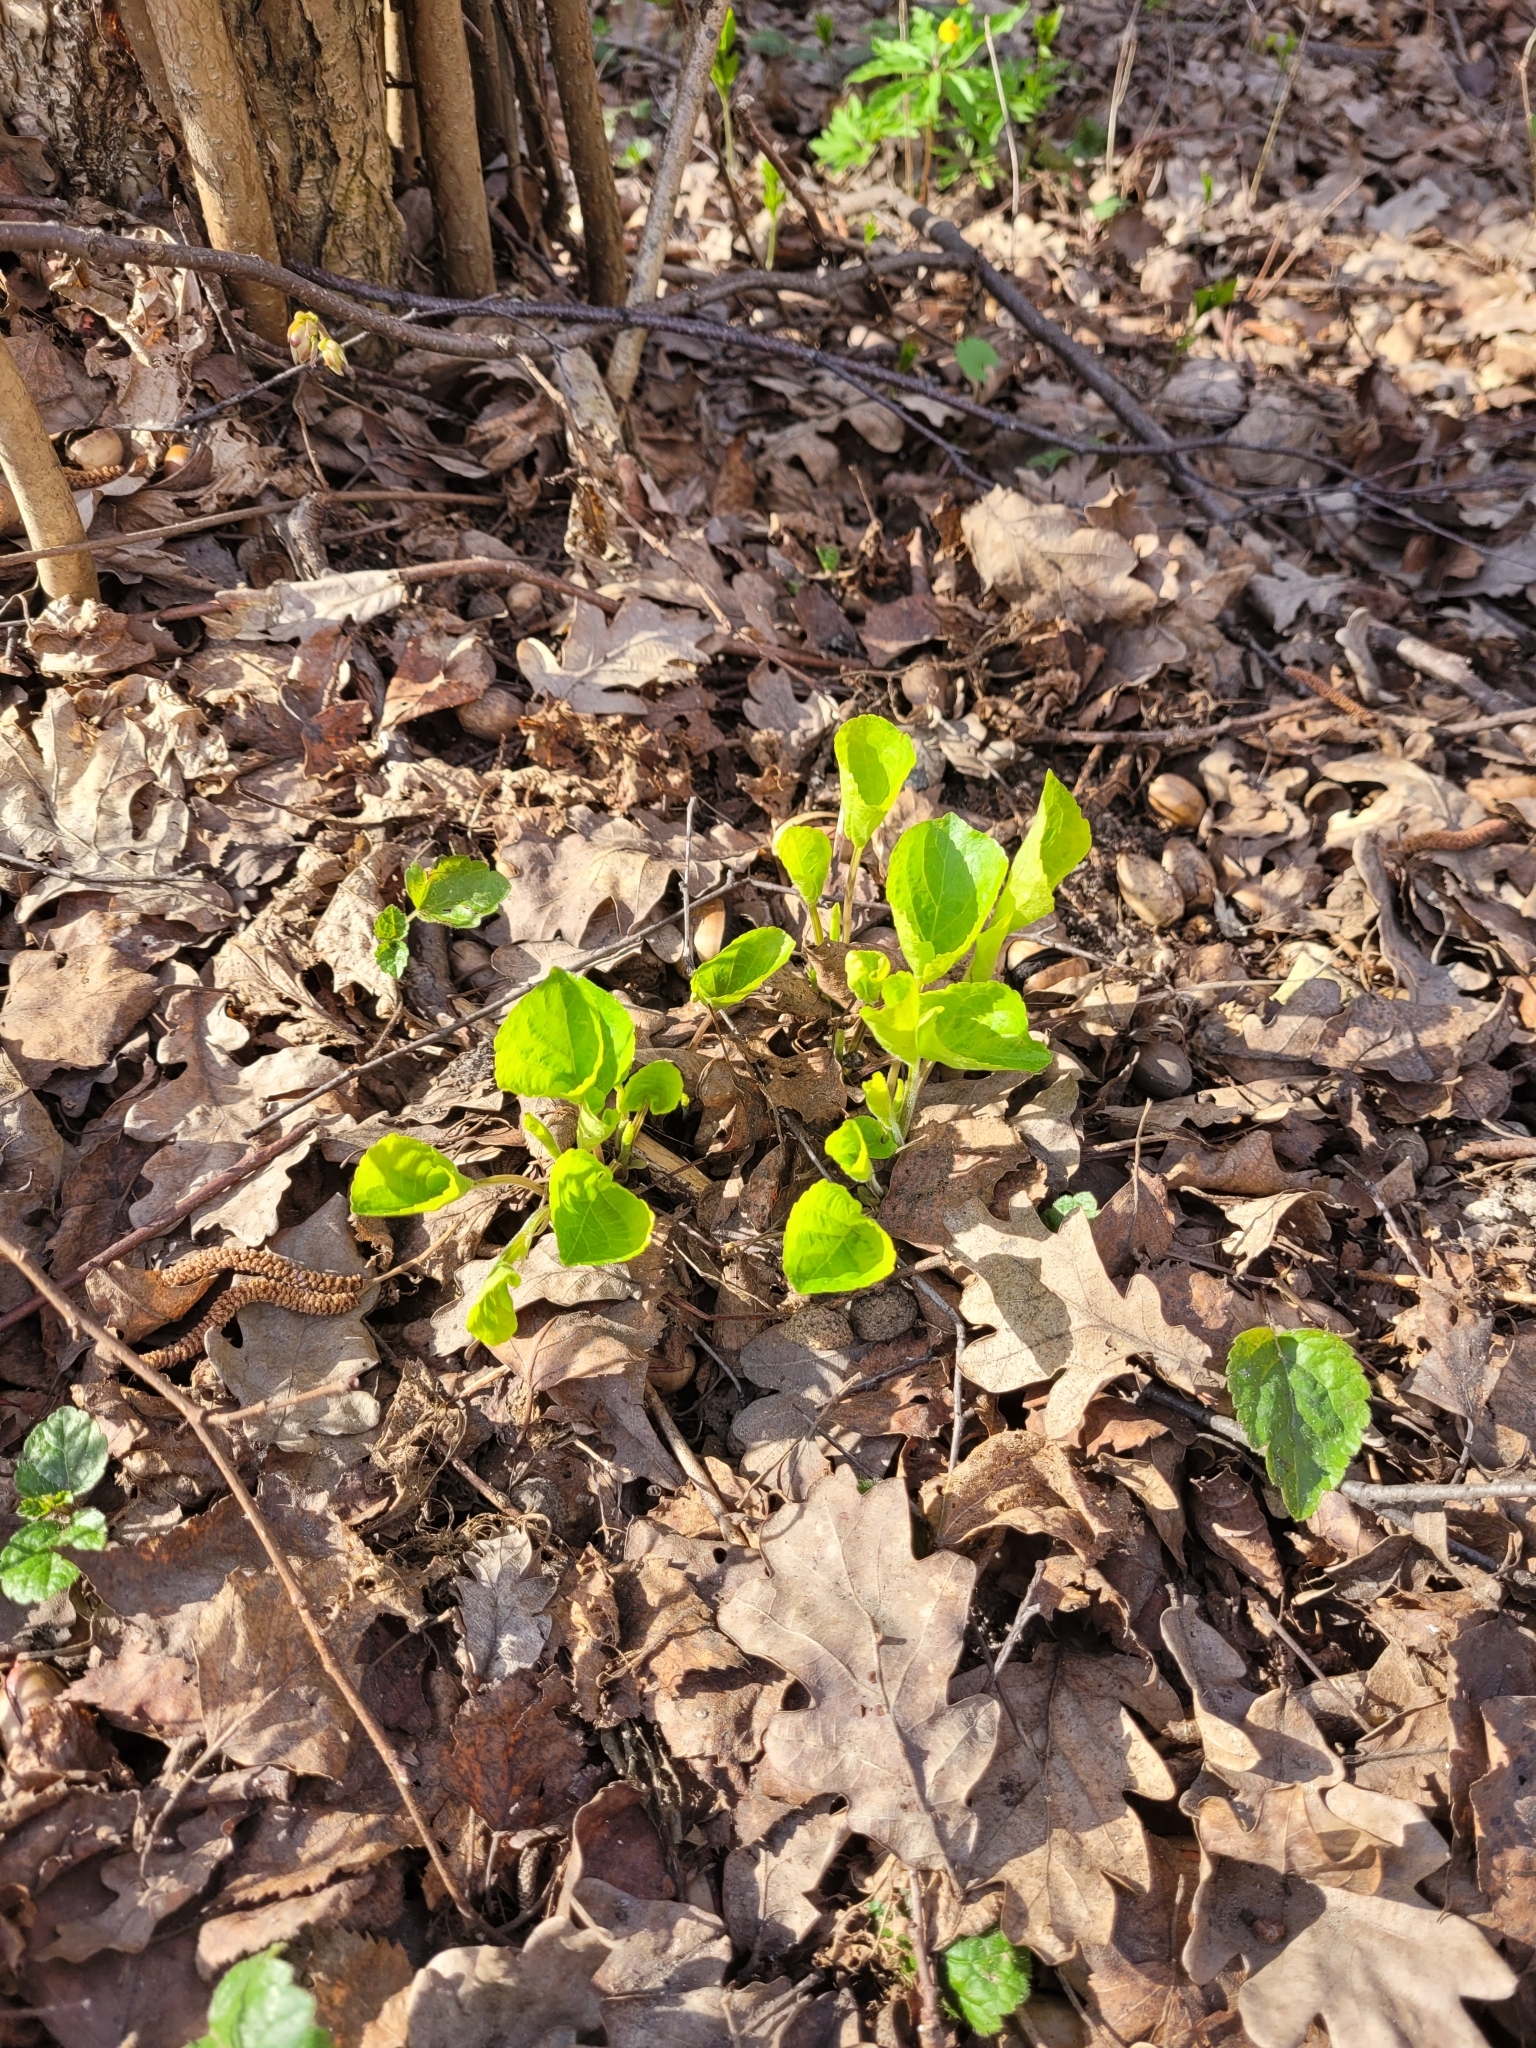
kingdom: Plantae
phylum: Tracheophyta
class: Magnoliopsida
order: Malpighiales
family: Violaceae
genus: Viola
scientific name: Viola mirabilis
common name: Wonder violet
